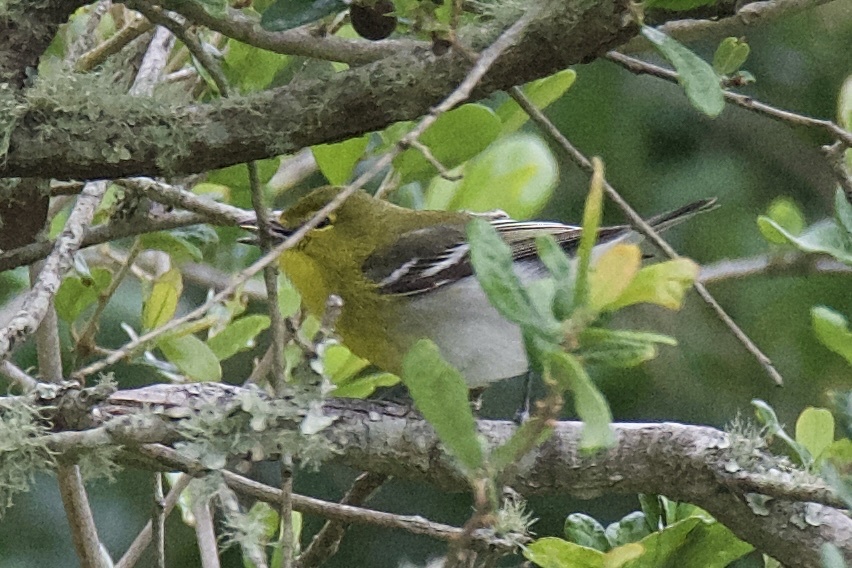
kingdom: Animalia
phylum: Chordata
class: Aves
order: Passeriformes
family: Vireonidae
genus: Vireo
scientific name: Vireo flavifrons
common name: Yellow-throated vireo
